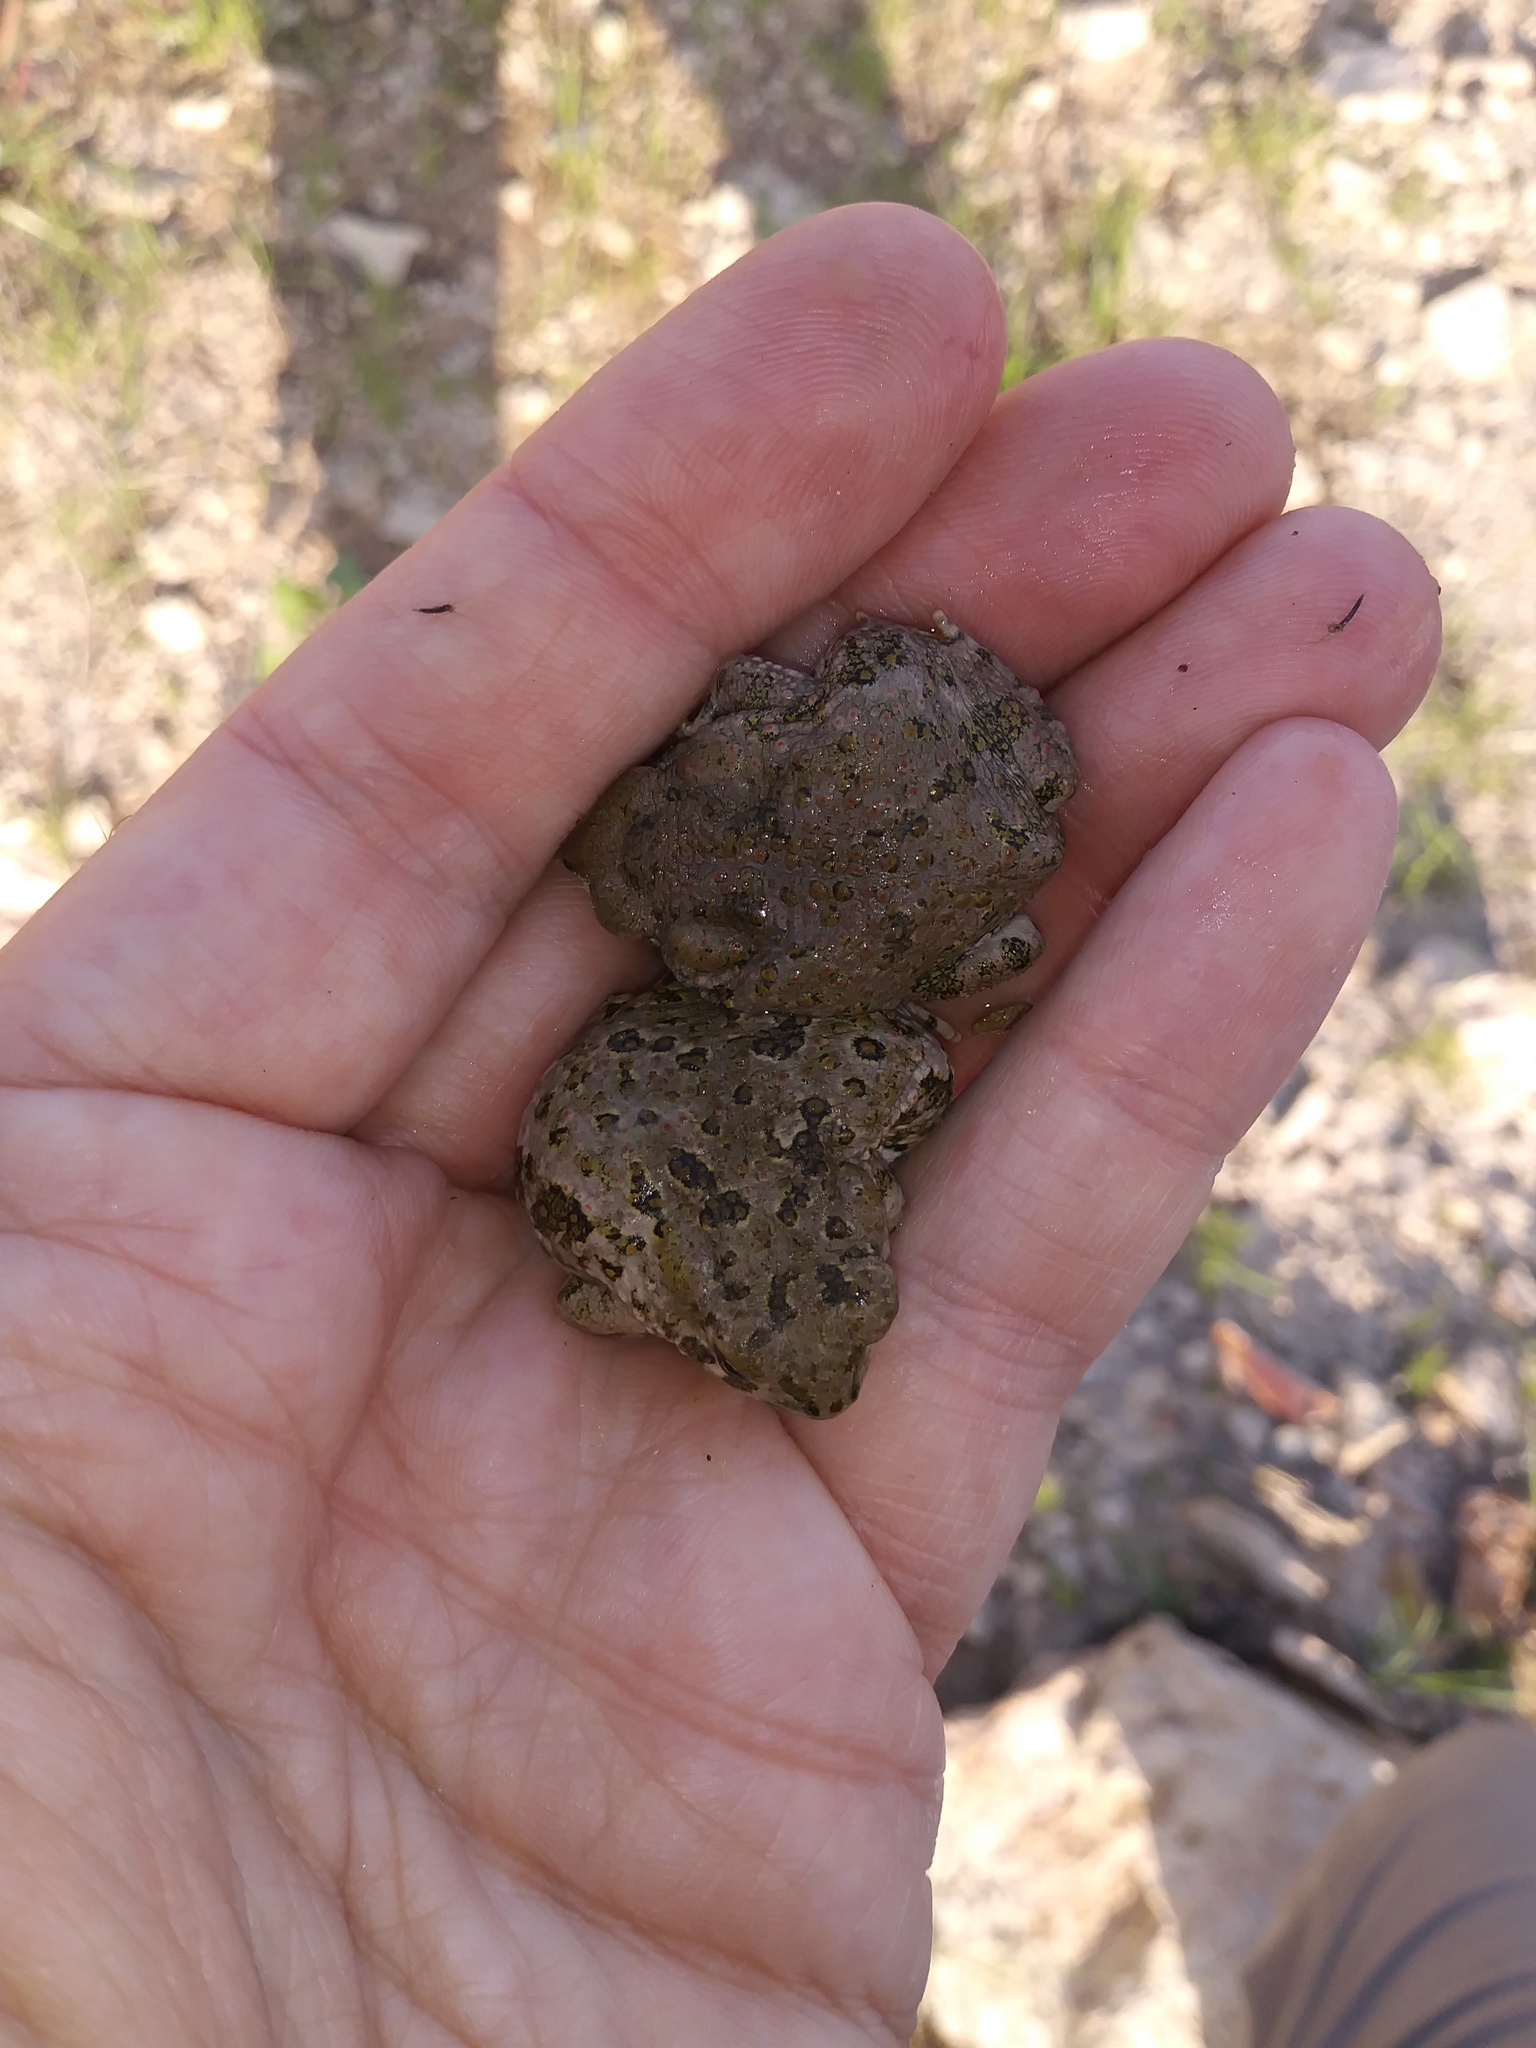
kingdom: Animalia
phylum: Chordata
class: Amphibia
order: Anura
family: Bufonidae
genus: Anaxyrus
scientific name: Anaxyrus speciosus
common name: Texas toad
